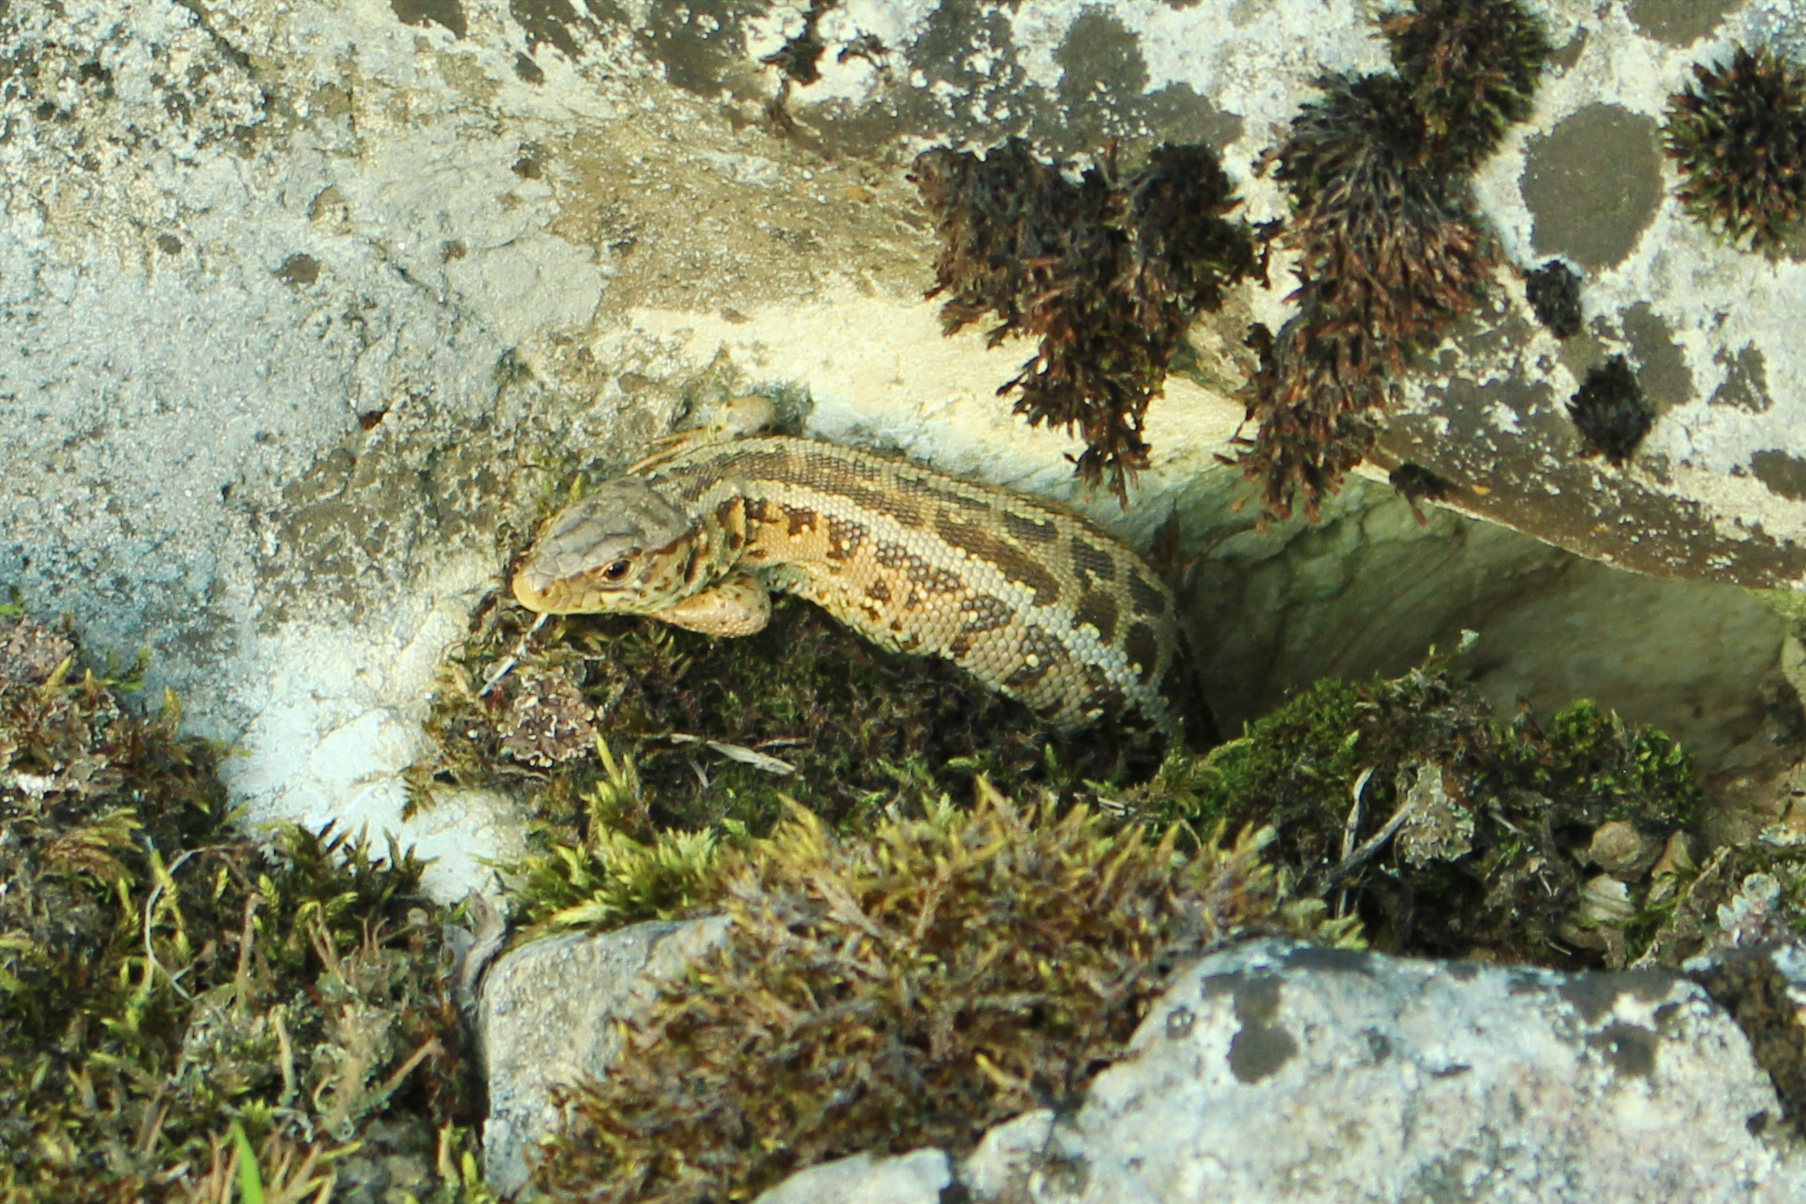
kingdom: Animalia
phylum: Chordata
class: Squamata
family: Lacertidae
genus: Lacerta
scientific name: Lacerta agilis
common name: Sand lizard
